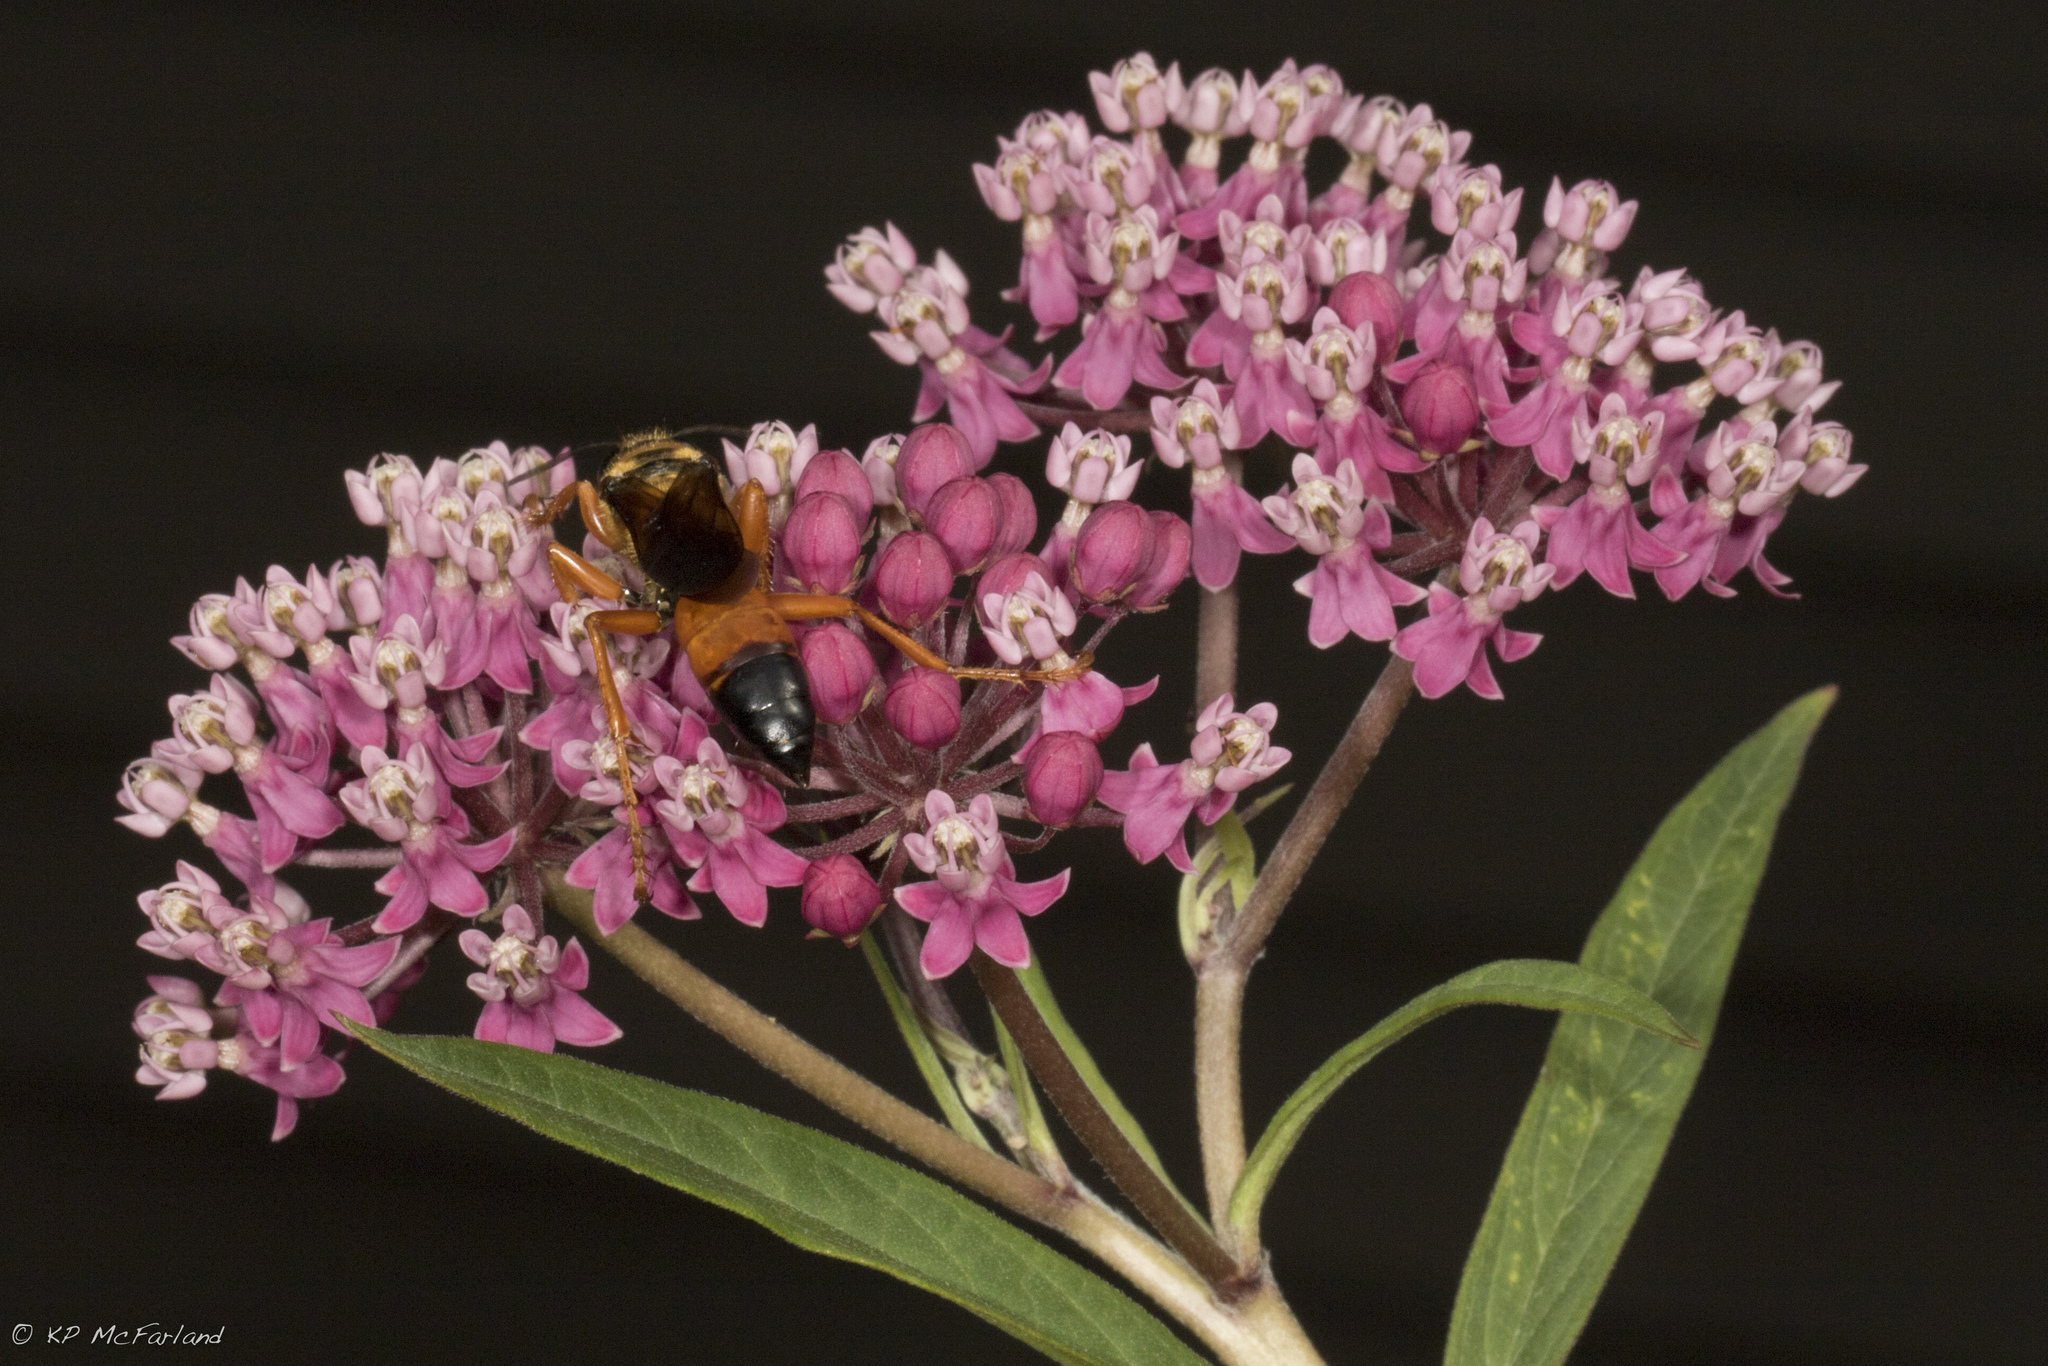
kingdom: Animalia
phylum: Arthropoda
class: Insecta
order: Hymenoptera
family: Sphecidae
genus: Sphex
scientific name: Sphex ichneumoneus
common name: Great golden digger wasp
